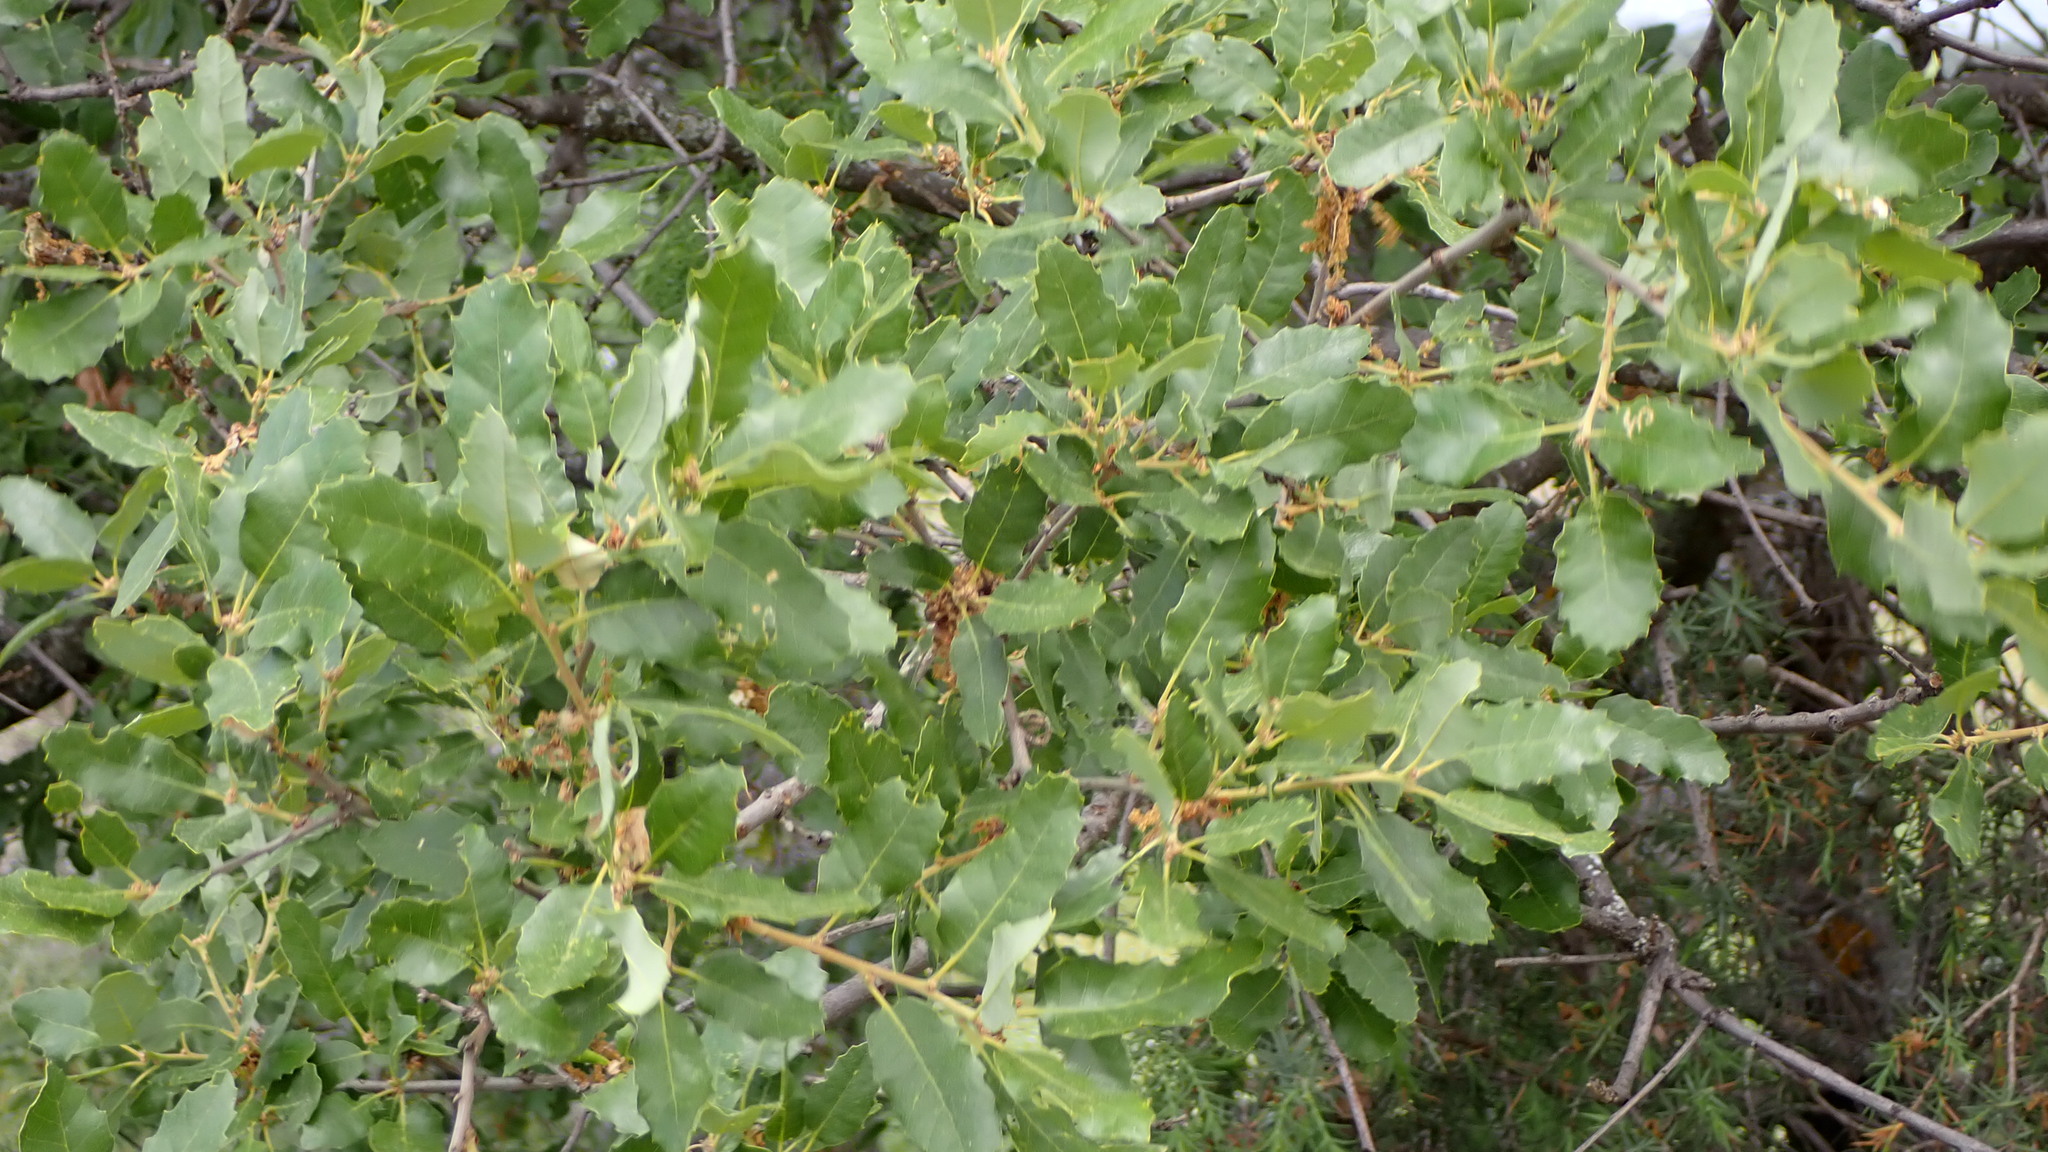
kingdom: Plantae
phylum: Tracheophyta
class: Magnoliopsida
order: Fagales
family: Fagaceae
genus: Quercus
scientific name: Quercus faginea
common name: Gall oak tree
